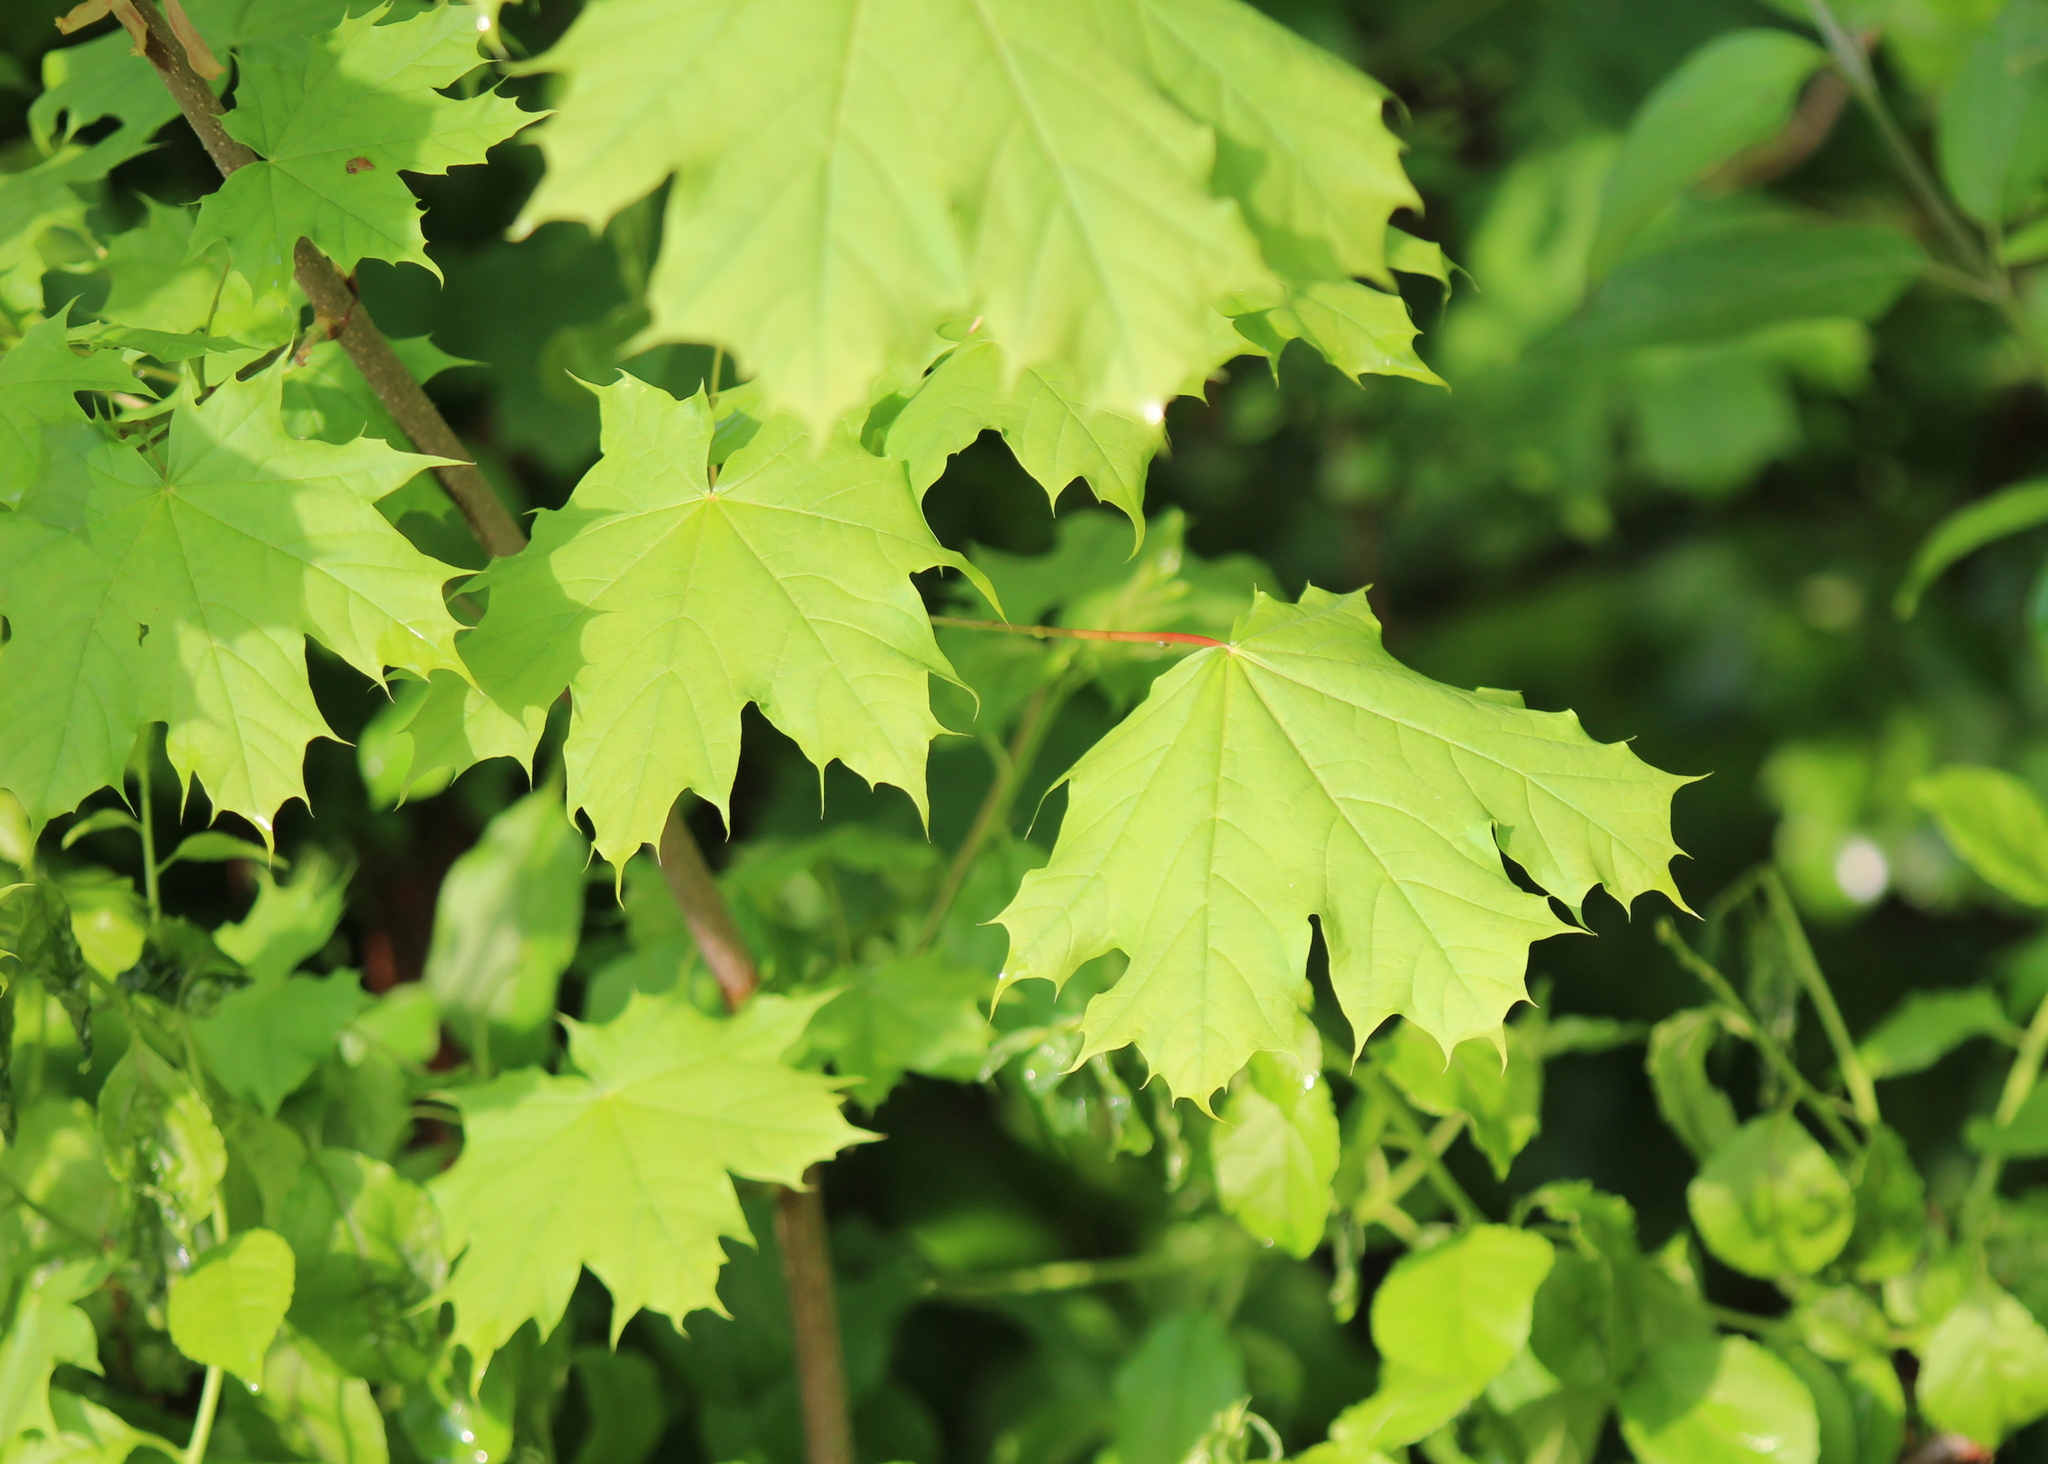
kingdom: Plantae
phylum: Tracheophyta
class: Magnoliopsida
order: Sapindales
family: Sapindaceae
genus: Acer
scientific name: Acer platanoides
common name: Norway maple
